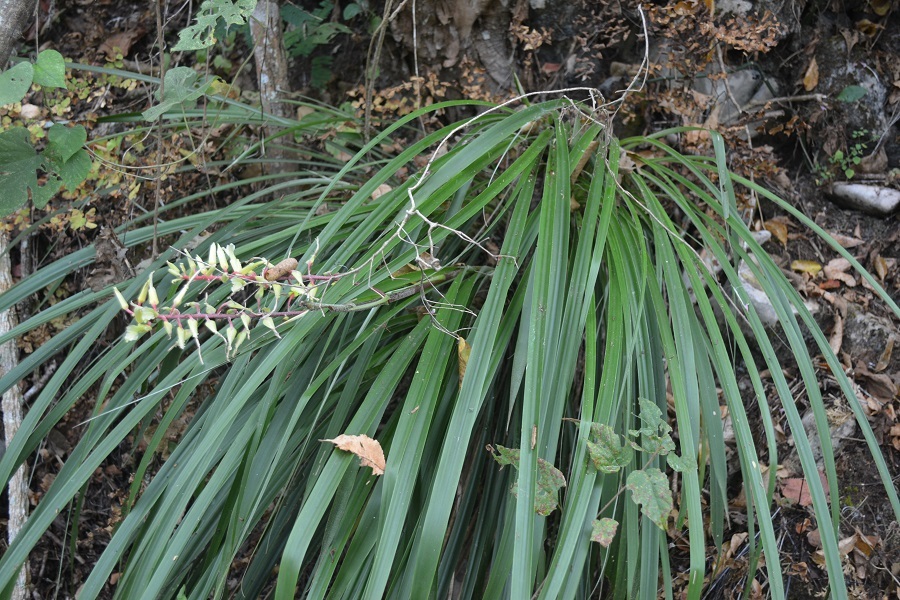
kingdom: Plantae
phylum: Tracheophyta
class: Liliopsida
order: Poales
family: Bromeliaceae
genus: Pitcairnia
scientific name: Pitcairnia breedlovei
